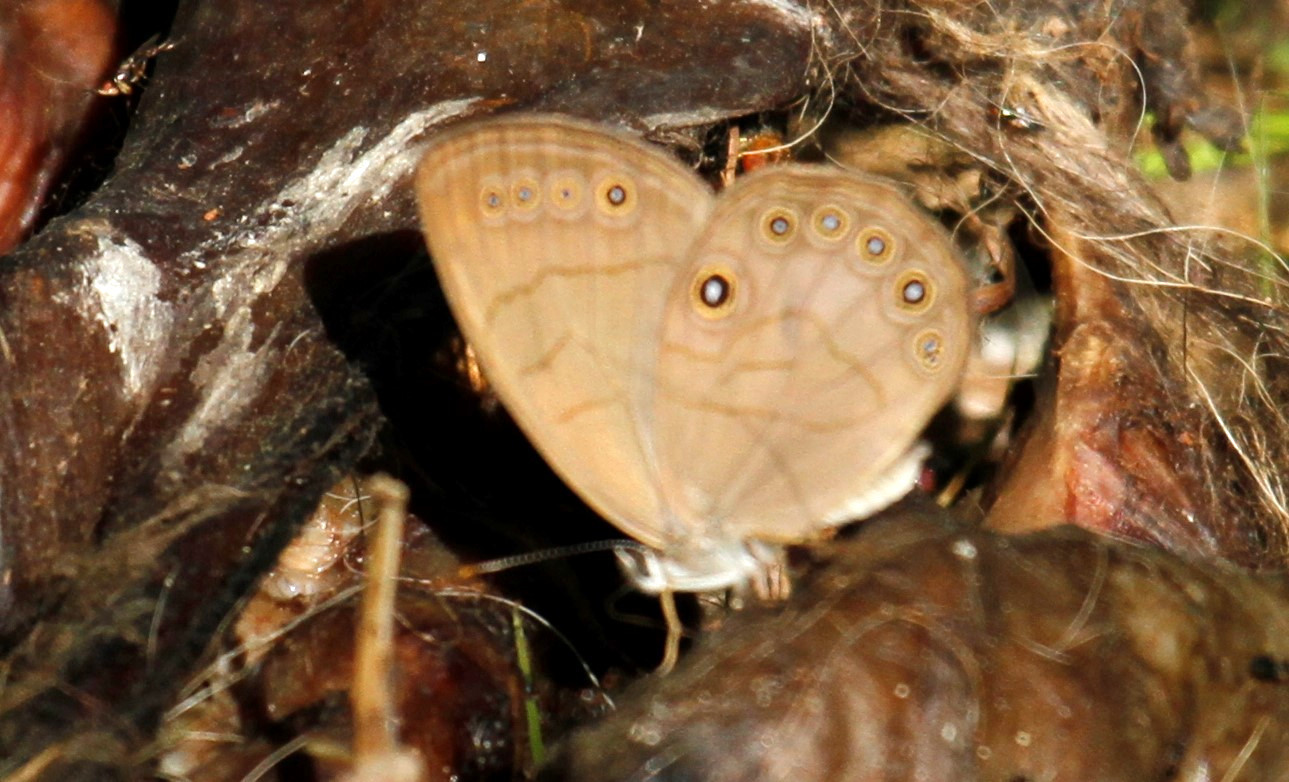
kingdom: Animalia
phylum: Arthropoda
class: Insecta
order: Lepidoptera
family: Nymphalidae
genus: Lethe
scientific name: Lethe eurydice
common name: Eyed brown
